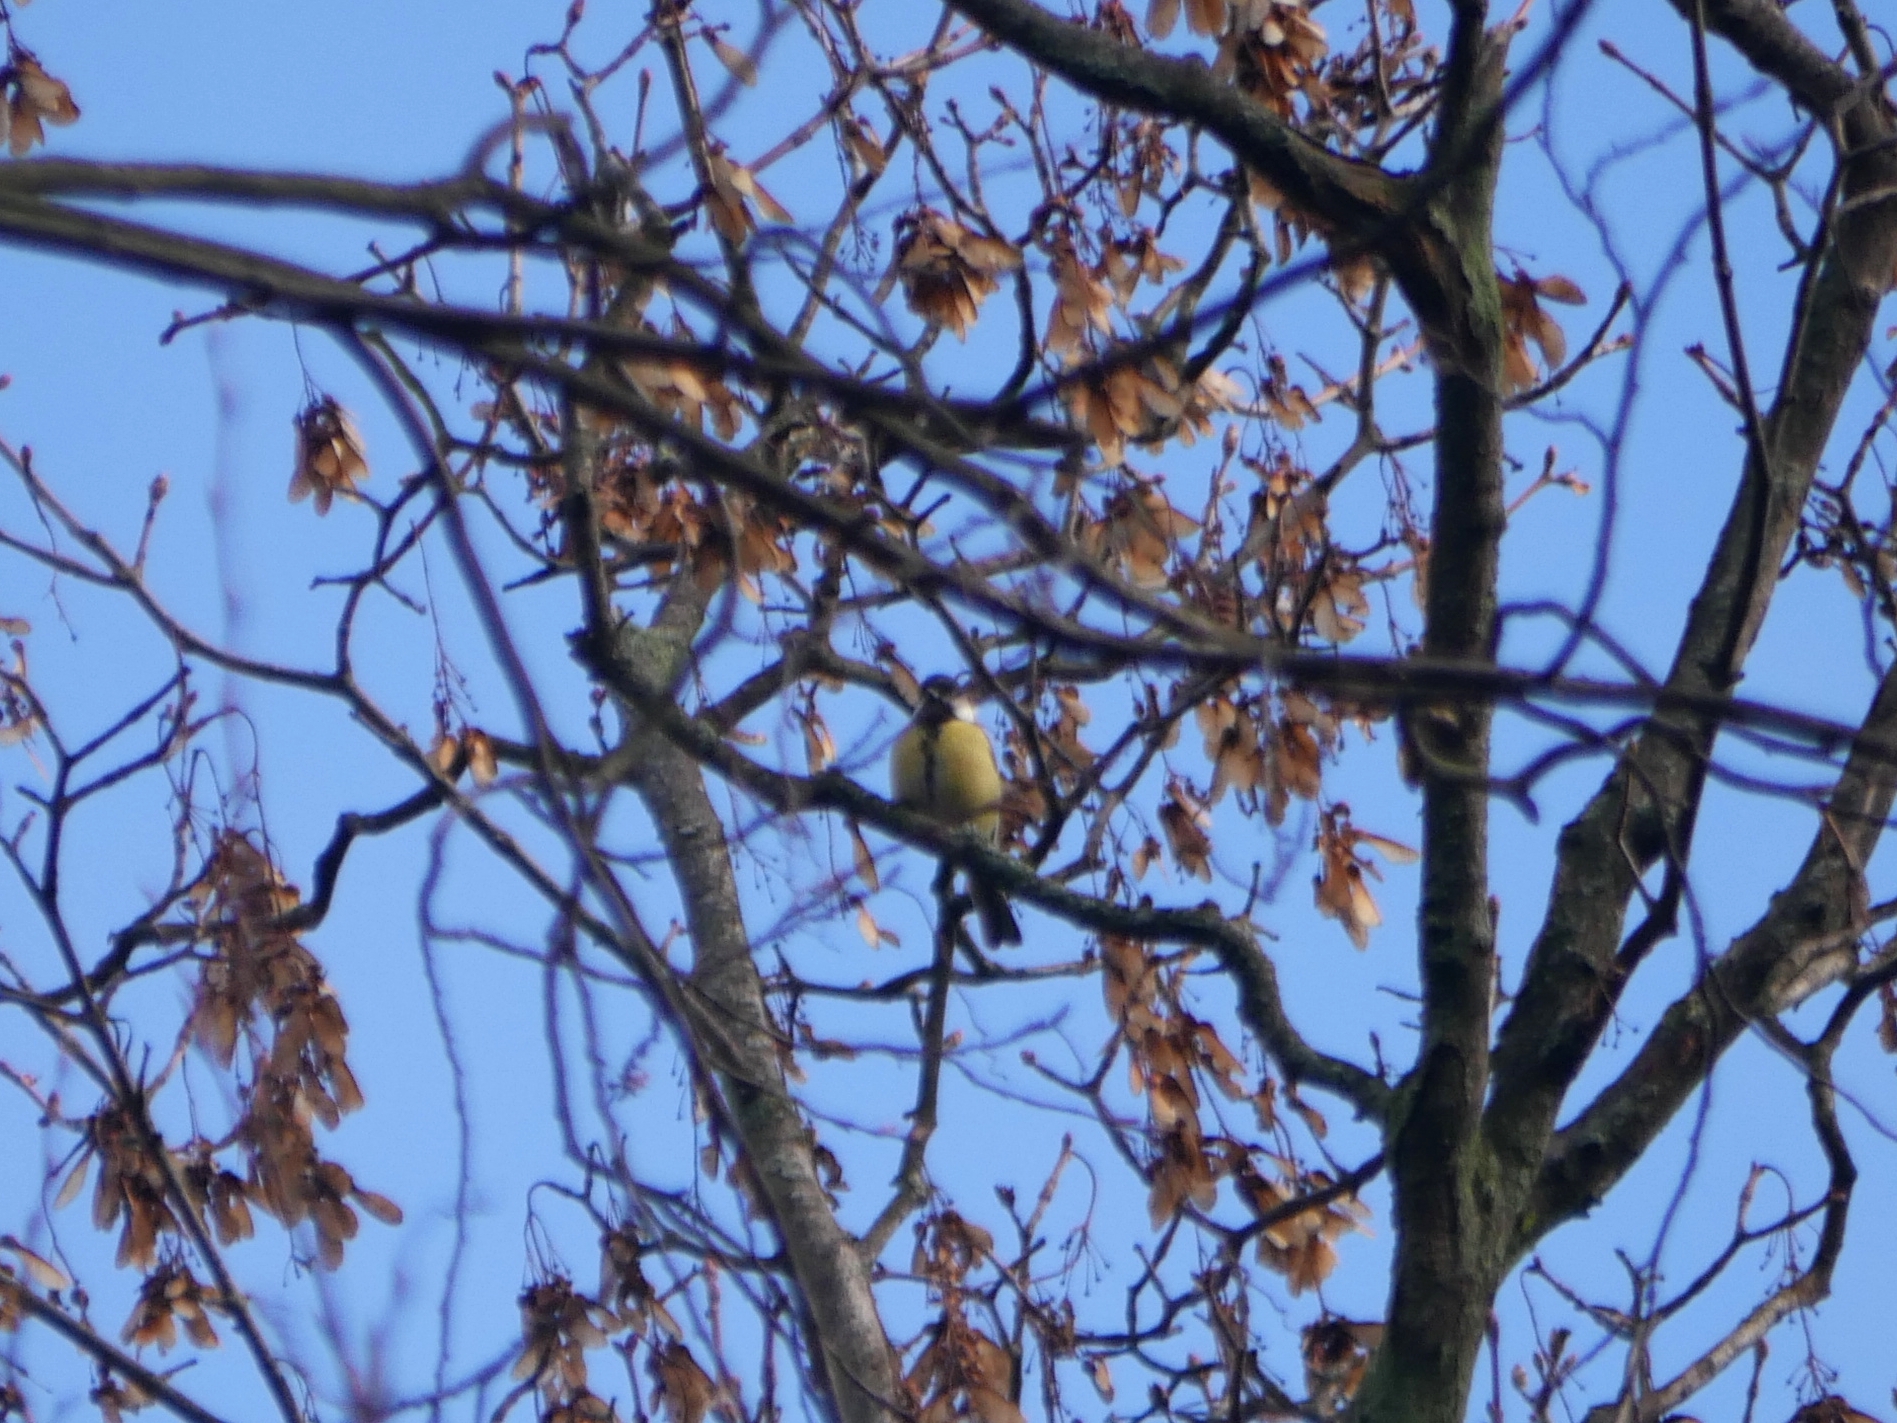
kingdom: Animalia
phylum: Chordata
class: Aves
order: Passeriformes
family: Paridae
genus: Parus
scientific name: Parus major
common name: Great tit
